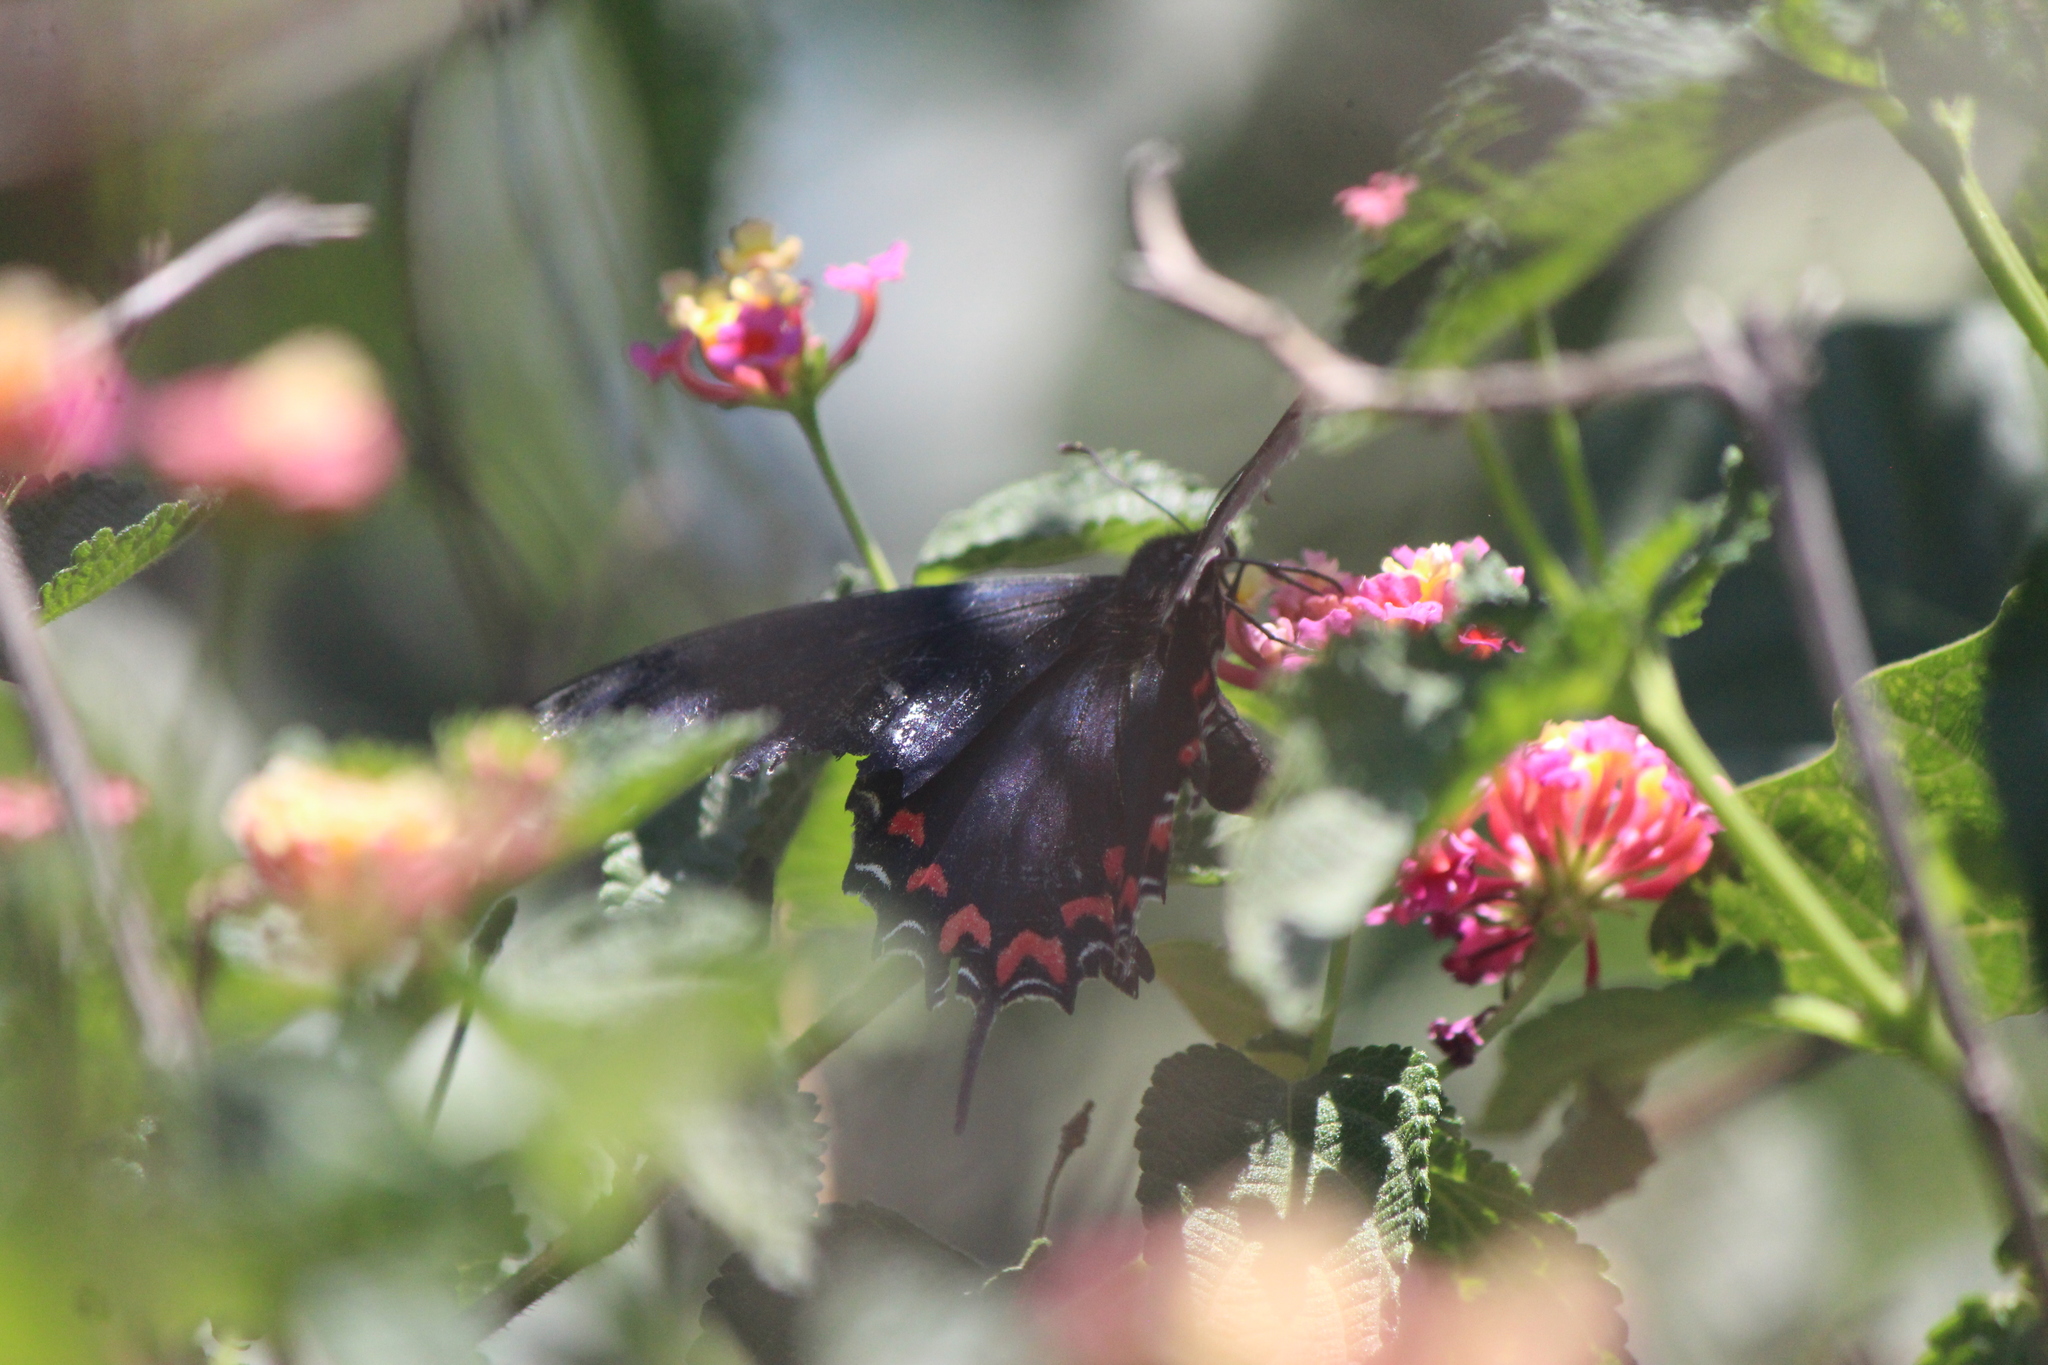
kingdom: Animalia
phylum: Arthropoda
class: Insecta
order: Lepidoptera
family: Papilionidae
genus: Mimoides
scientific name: Mimoides thymbraeus
